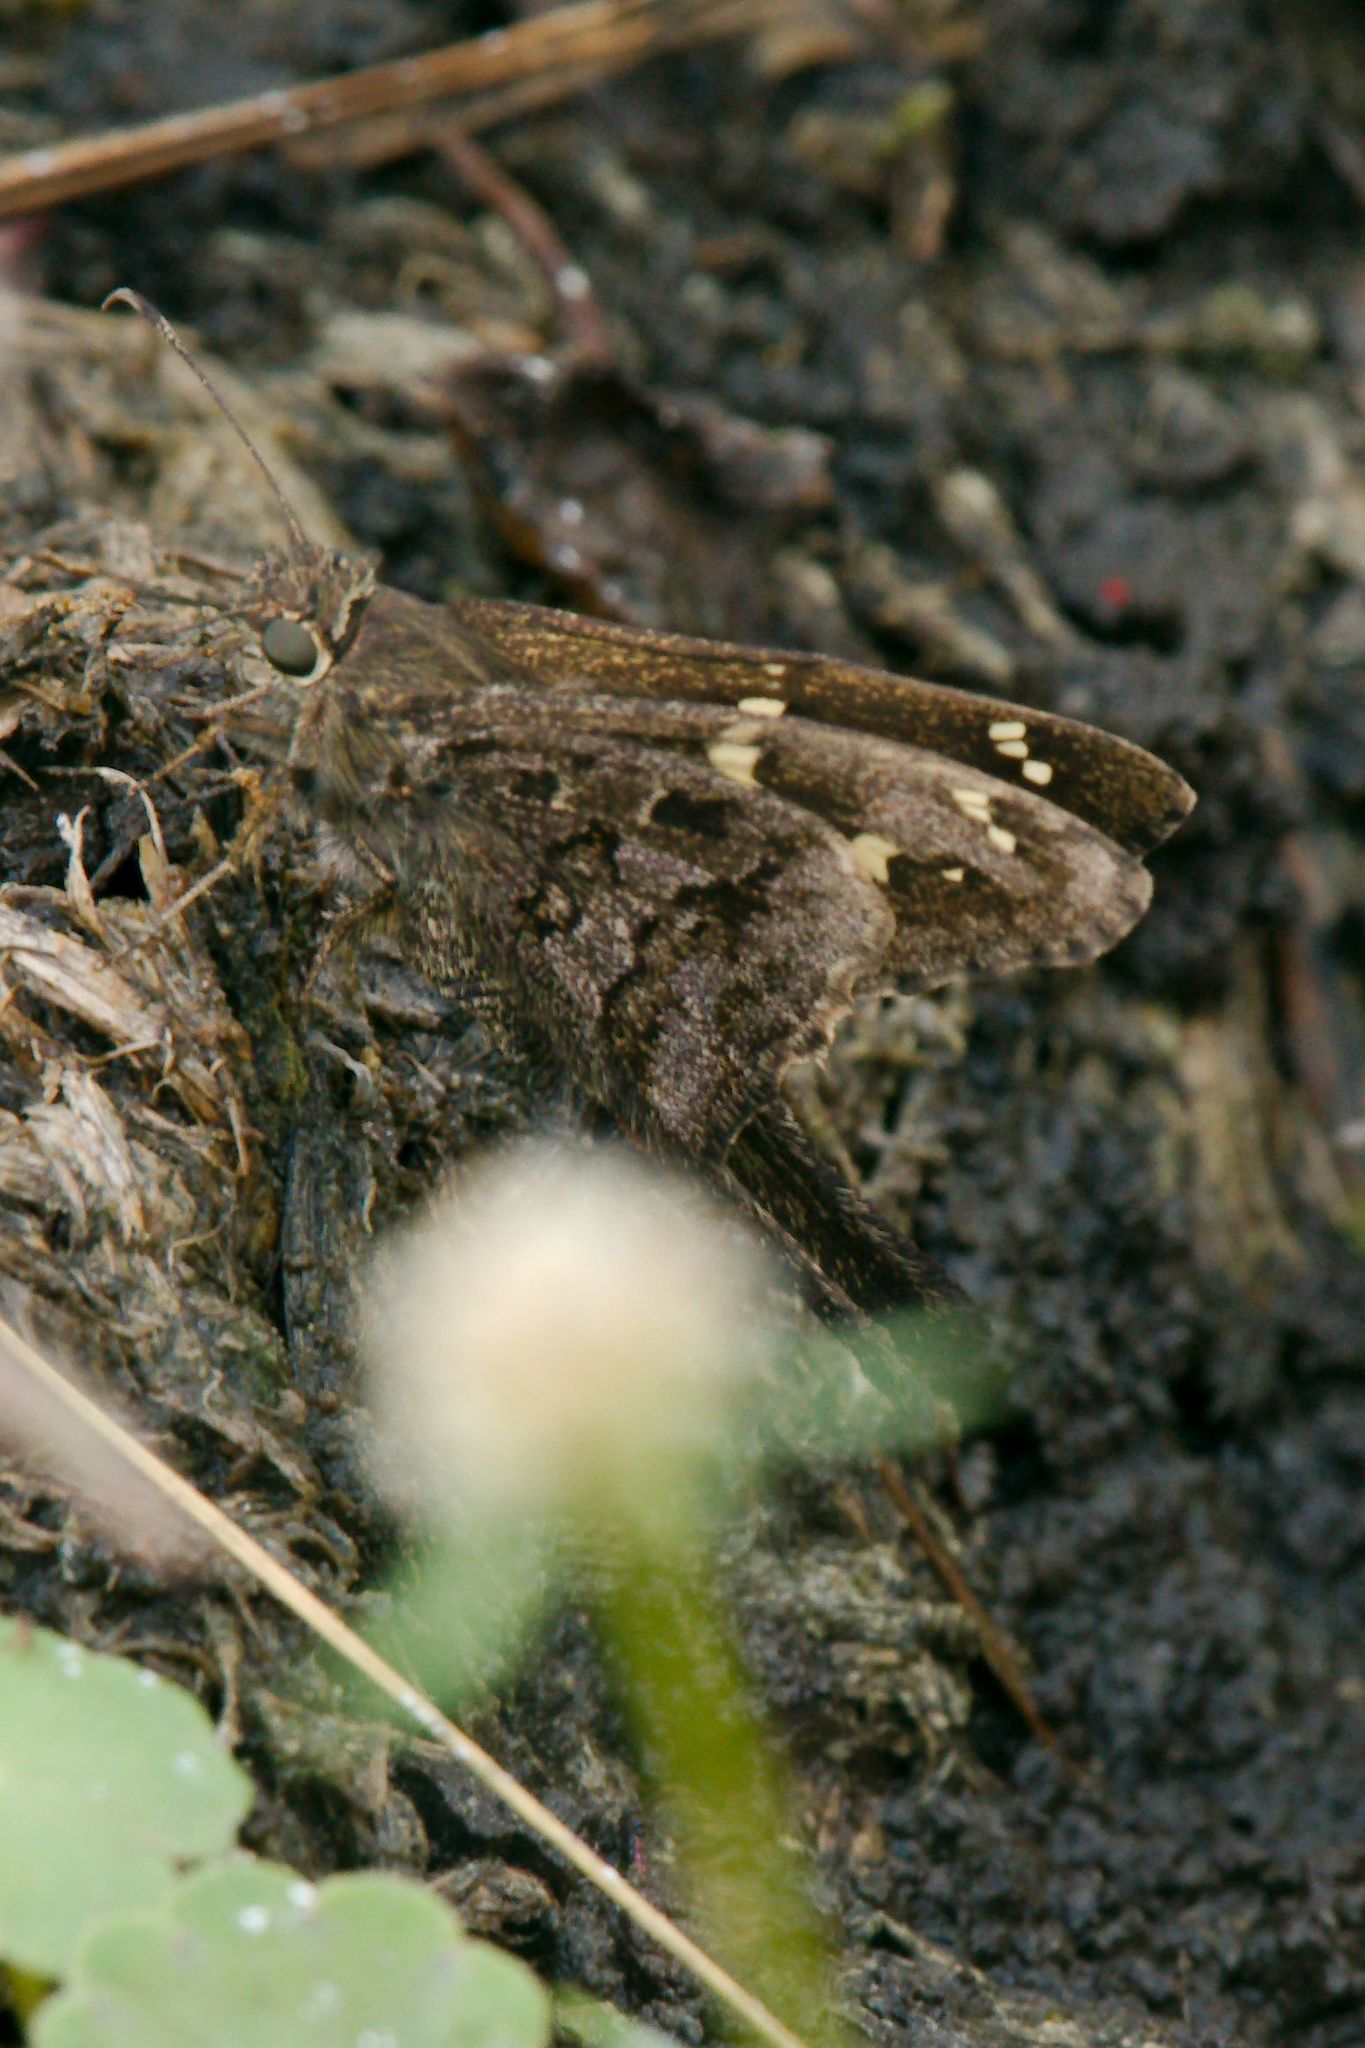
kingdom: Animalia
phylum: Arthropoda
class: Insecta
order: Lepidoptera
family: Hesperiidae
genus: Thorybes
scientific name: Thorybes
